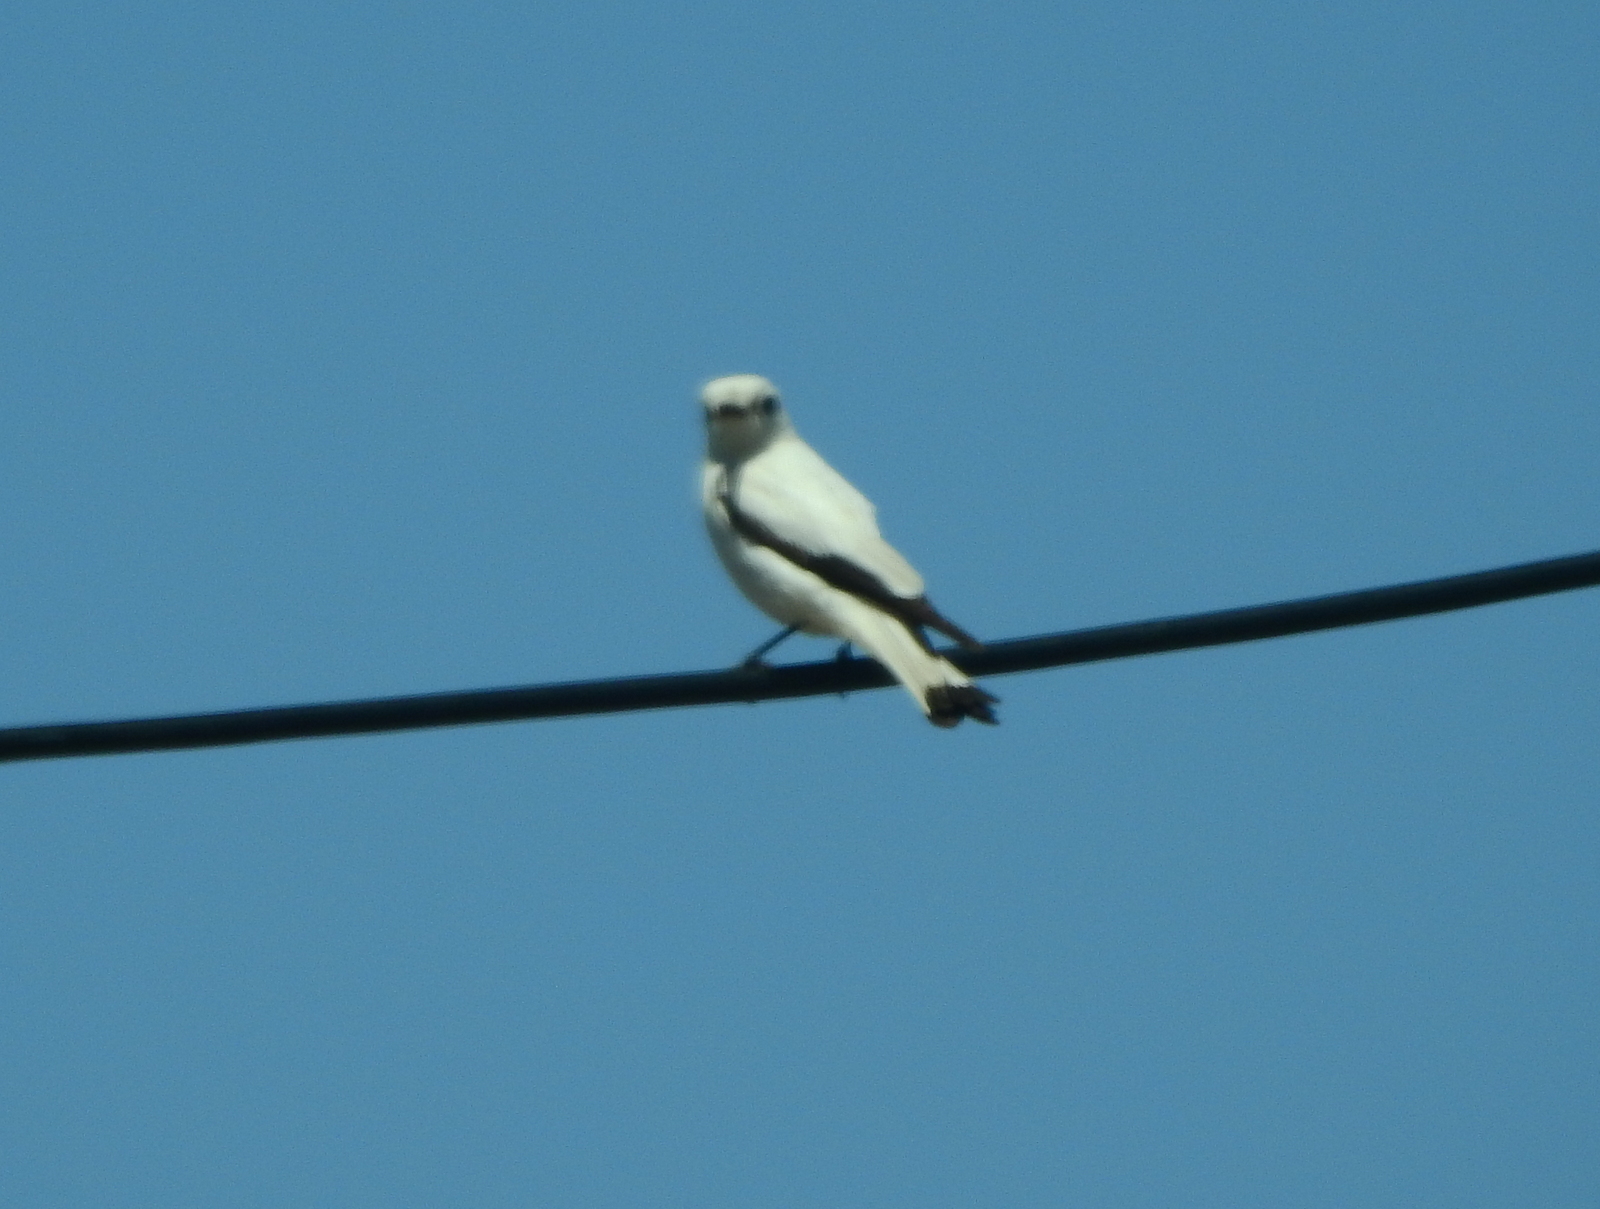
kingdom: Animalia
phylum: Chordata
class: Aves
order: Passeriformes
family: Tyrannidae
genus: Xolmis
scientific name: Xolmis irupero
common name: White monjita
